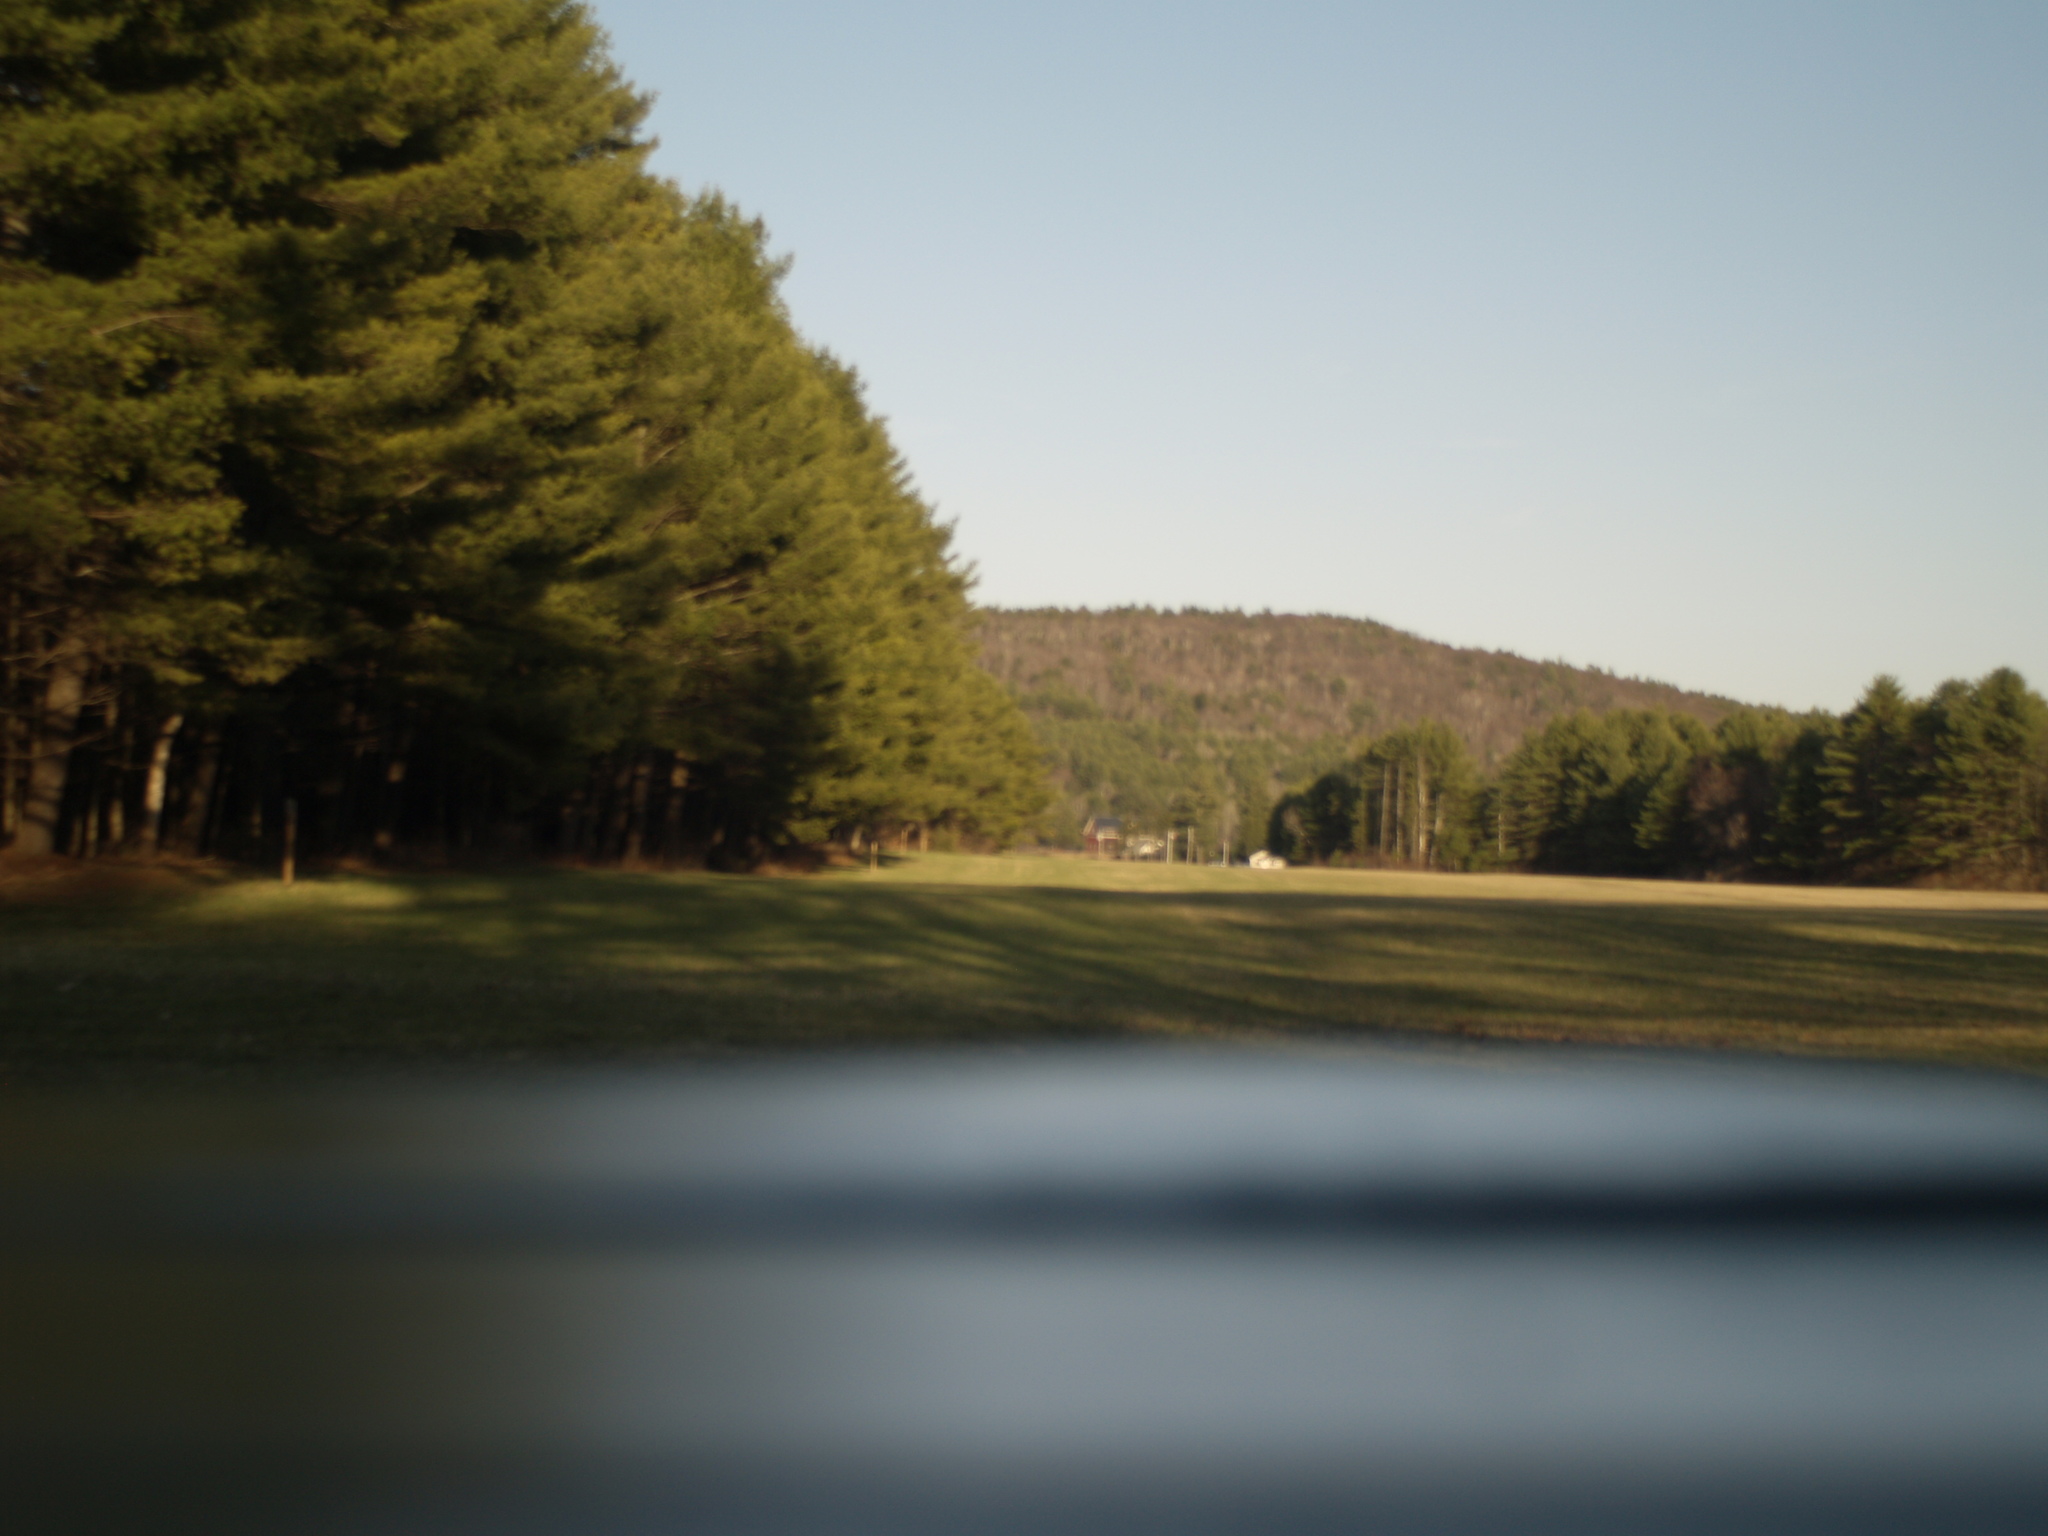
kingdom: Plantae
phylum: Tracheophyta
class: Pinopsida
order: Pinales
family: Pinaceae
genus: Pinus
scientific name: Pinus strobus
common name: Weymouth pine
